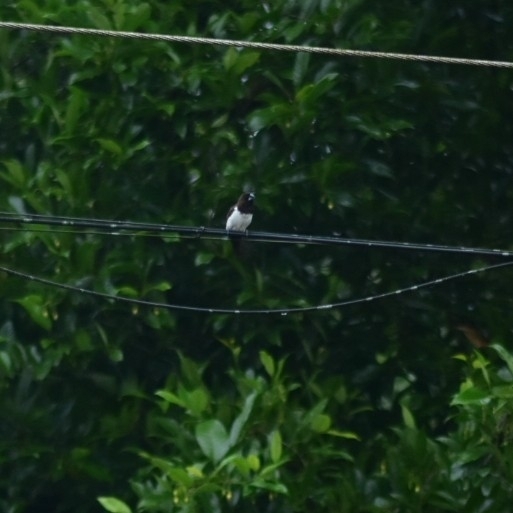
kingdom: Animalia
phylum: Chordata
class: Aves
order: Passeriformes
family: Estrildidae
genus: Lonchura
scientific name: Lonchura striata
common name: White-rumped munia
